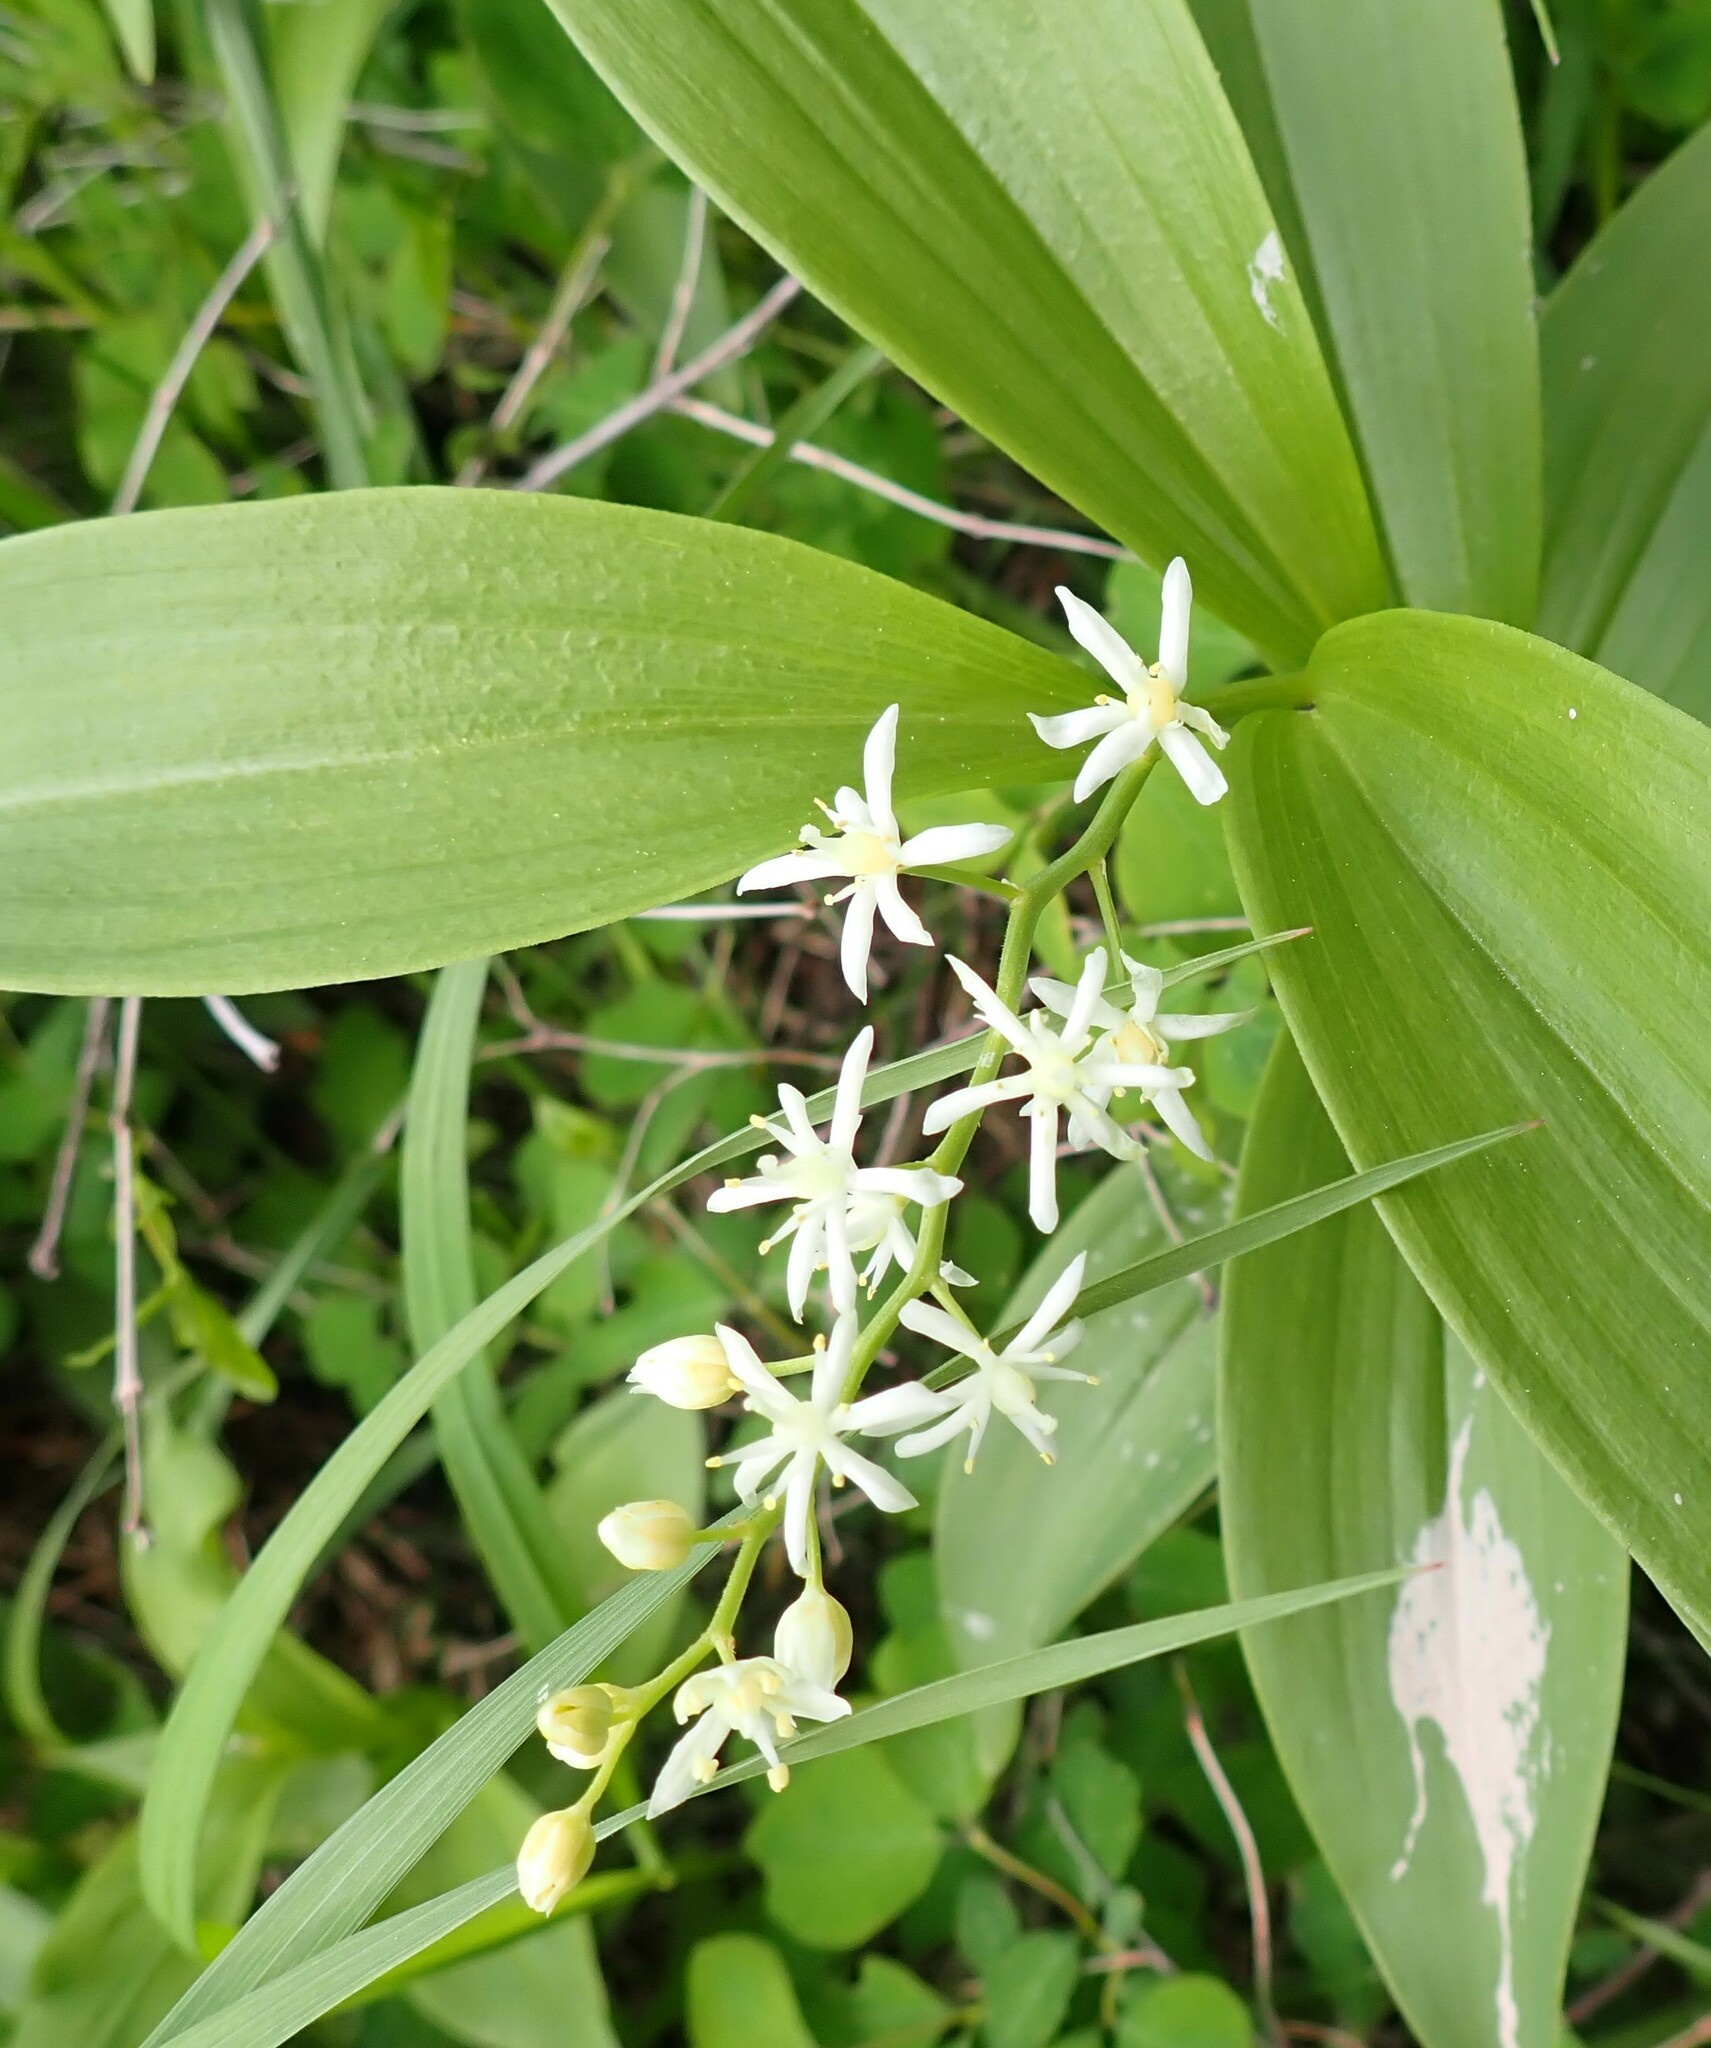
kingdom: Plantae
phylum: Tracheophyta
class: Liliopsida
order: Asparagales
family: Asparagaceae
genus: Maianthemum
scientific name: Maianthemum stellatum
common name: Little false solomon's seal
